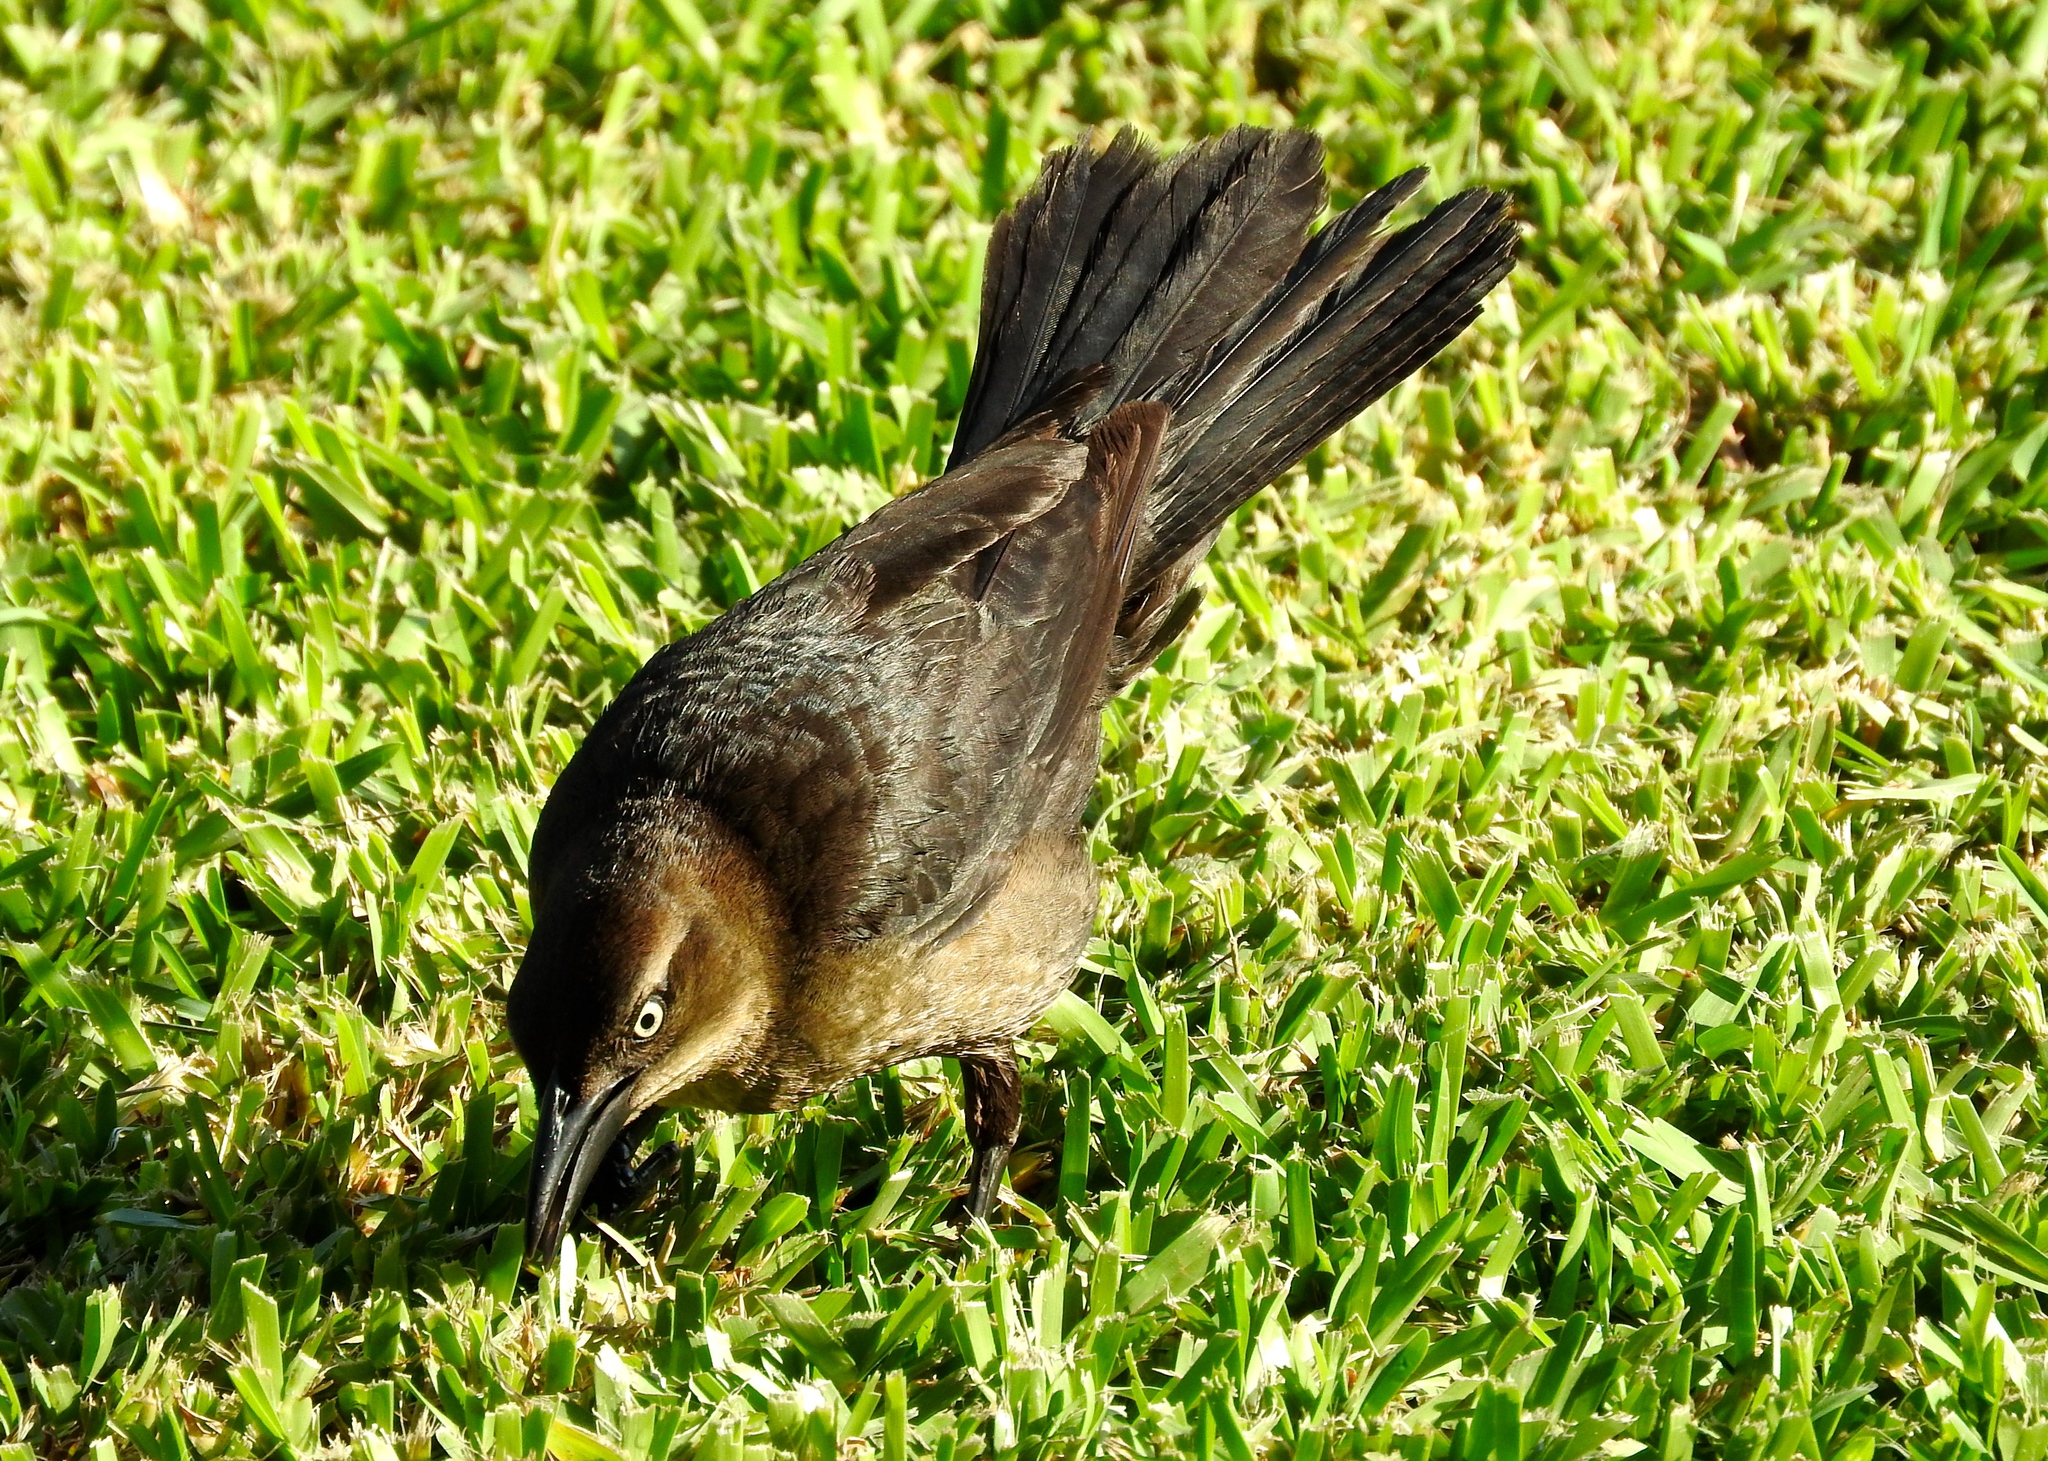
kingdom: Animalia
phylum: Chordata
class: Aves
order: Passeriformes
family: Icteridae
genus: Quiscalus
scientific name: Quiscalus mexicanus
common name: Great-tailed grackle
